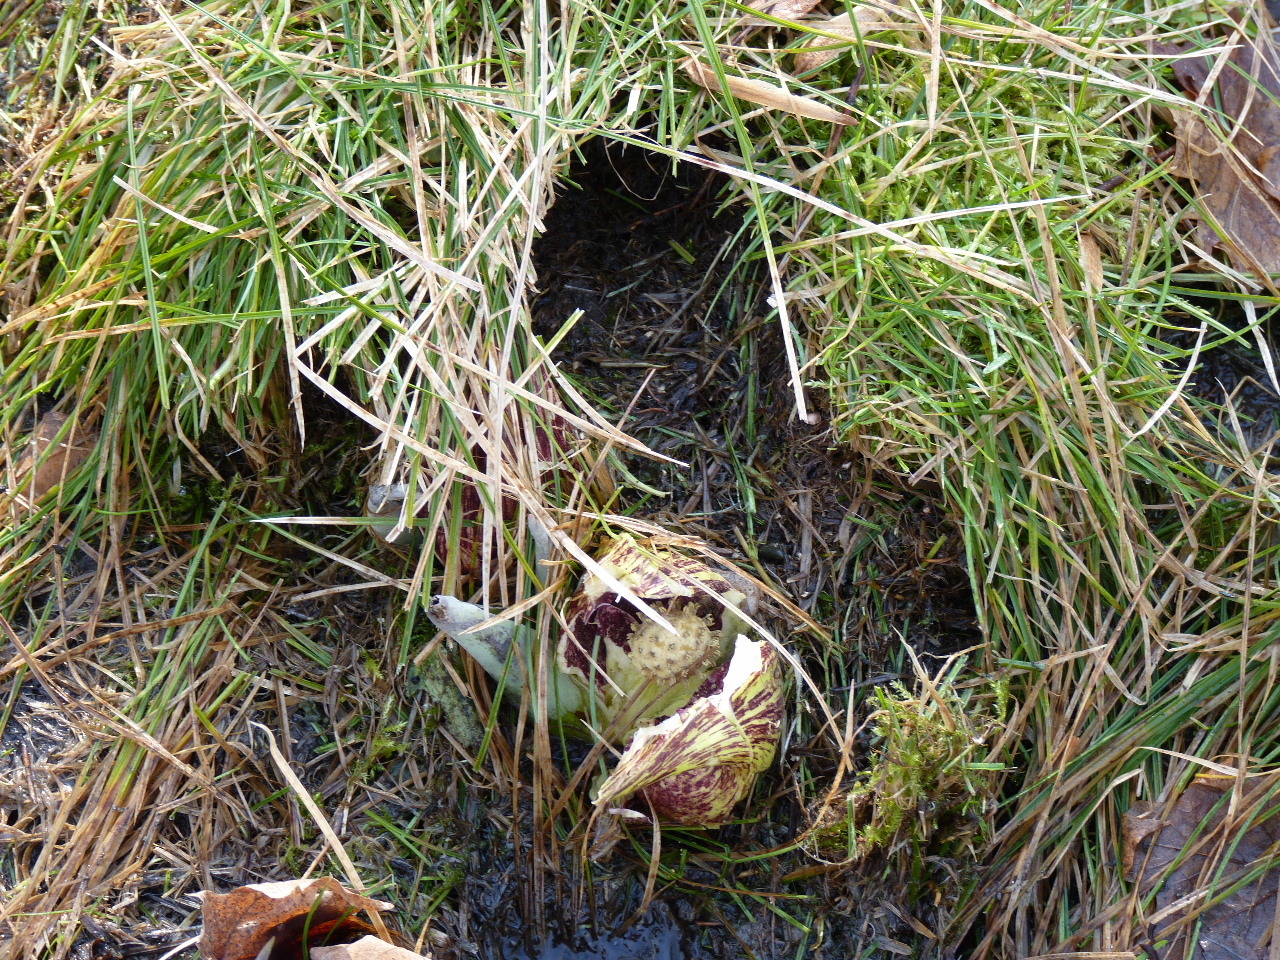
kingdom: Plantae
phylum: Tracheophyta
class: Liliopsida
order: Alismatales
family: Araceae
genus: Symplocarpus
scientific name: Symplocarpus foetidus
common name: Eastern skunk cabbage
